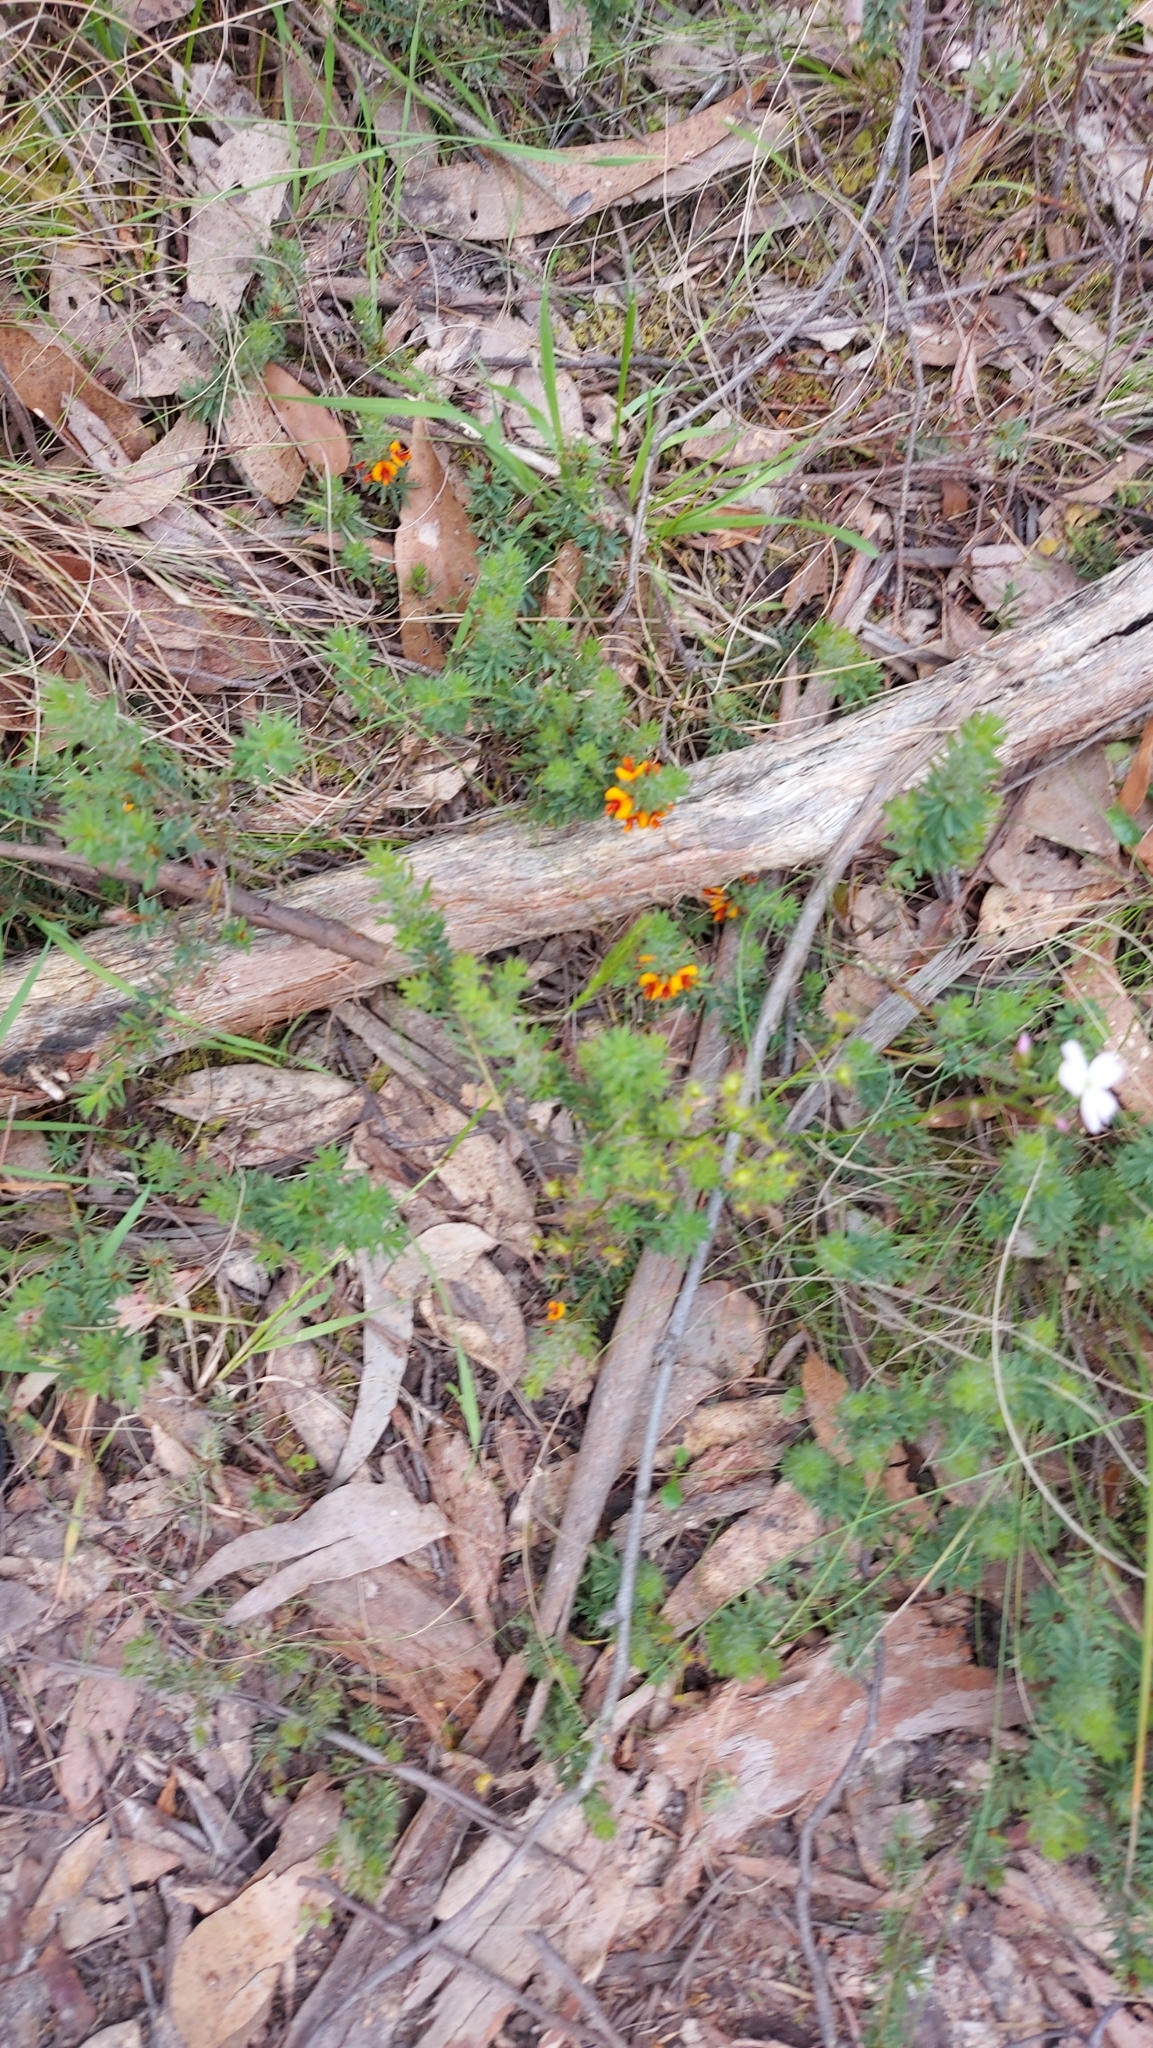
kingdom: Plantae
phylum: Tracheophyta
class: Magnoliopsida
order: Fabales
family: Fabaceae
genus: Pultenaea
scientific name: Pultenaea humilis
